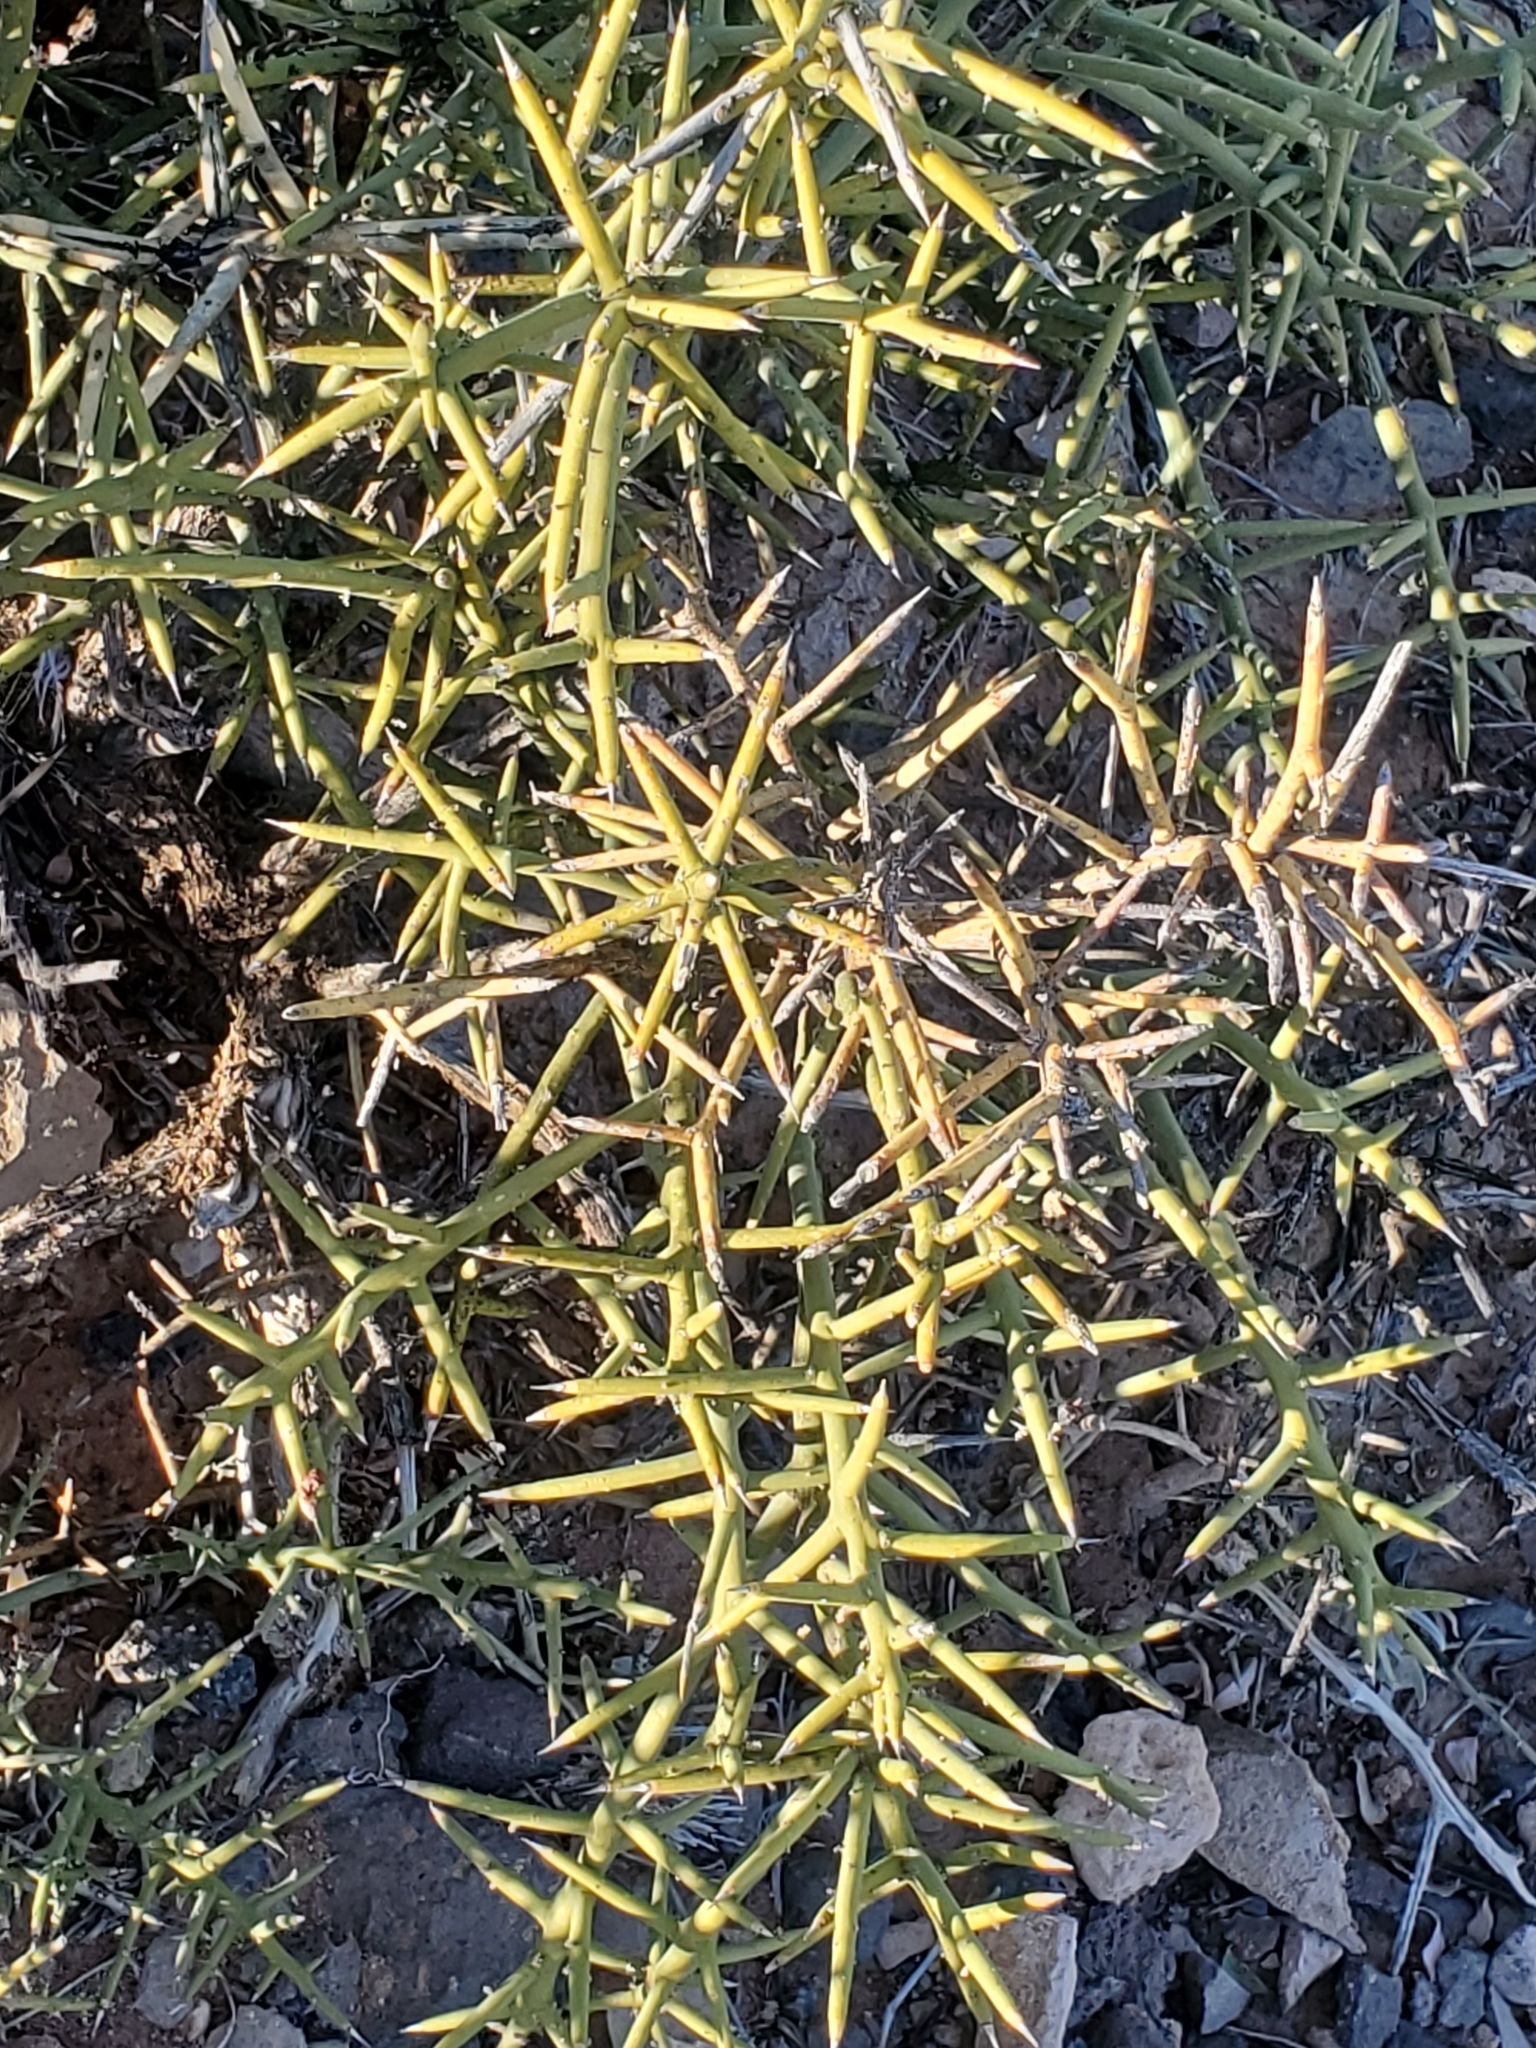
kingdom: Plantae
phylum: Tracheophyta
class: Magnoliopsida
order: Brassicales
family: Koeberliniaceae
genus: Koeberlinia
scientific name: Koeberlinia spinosa
